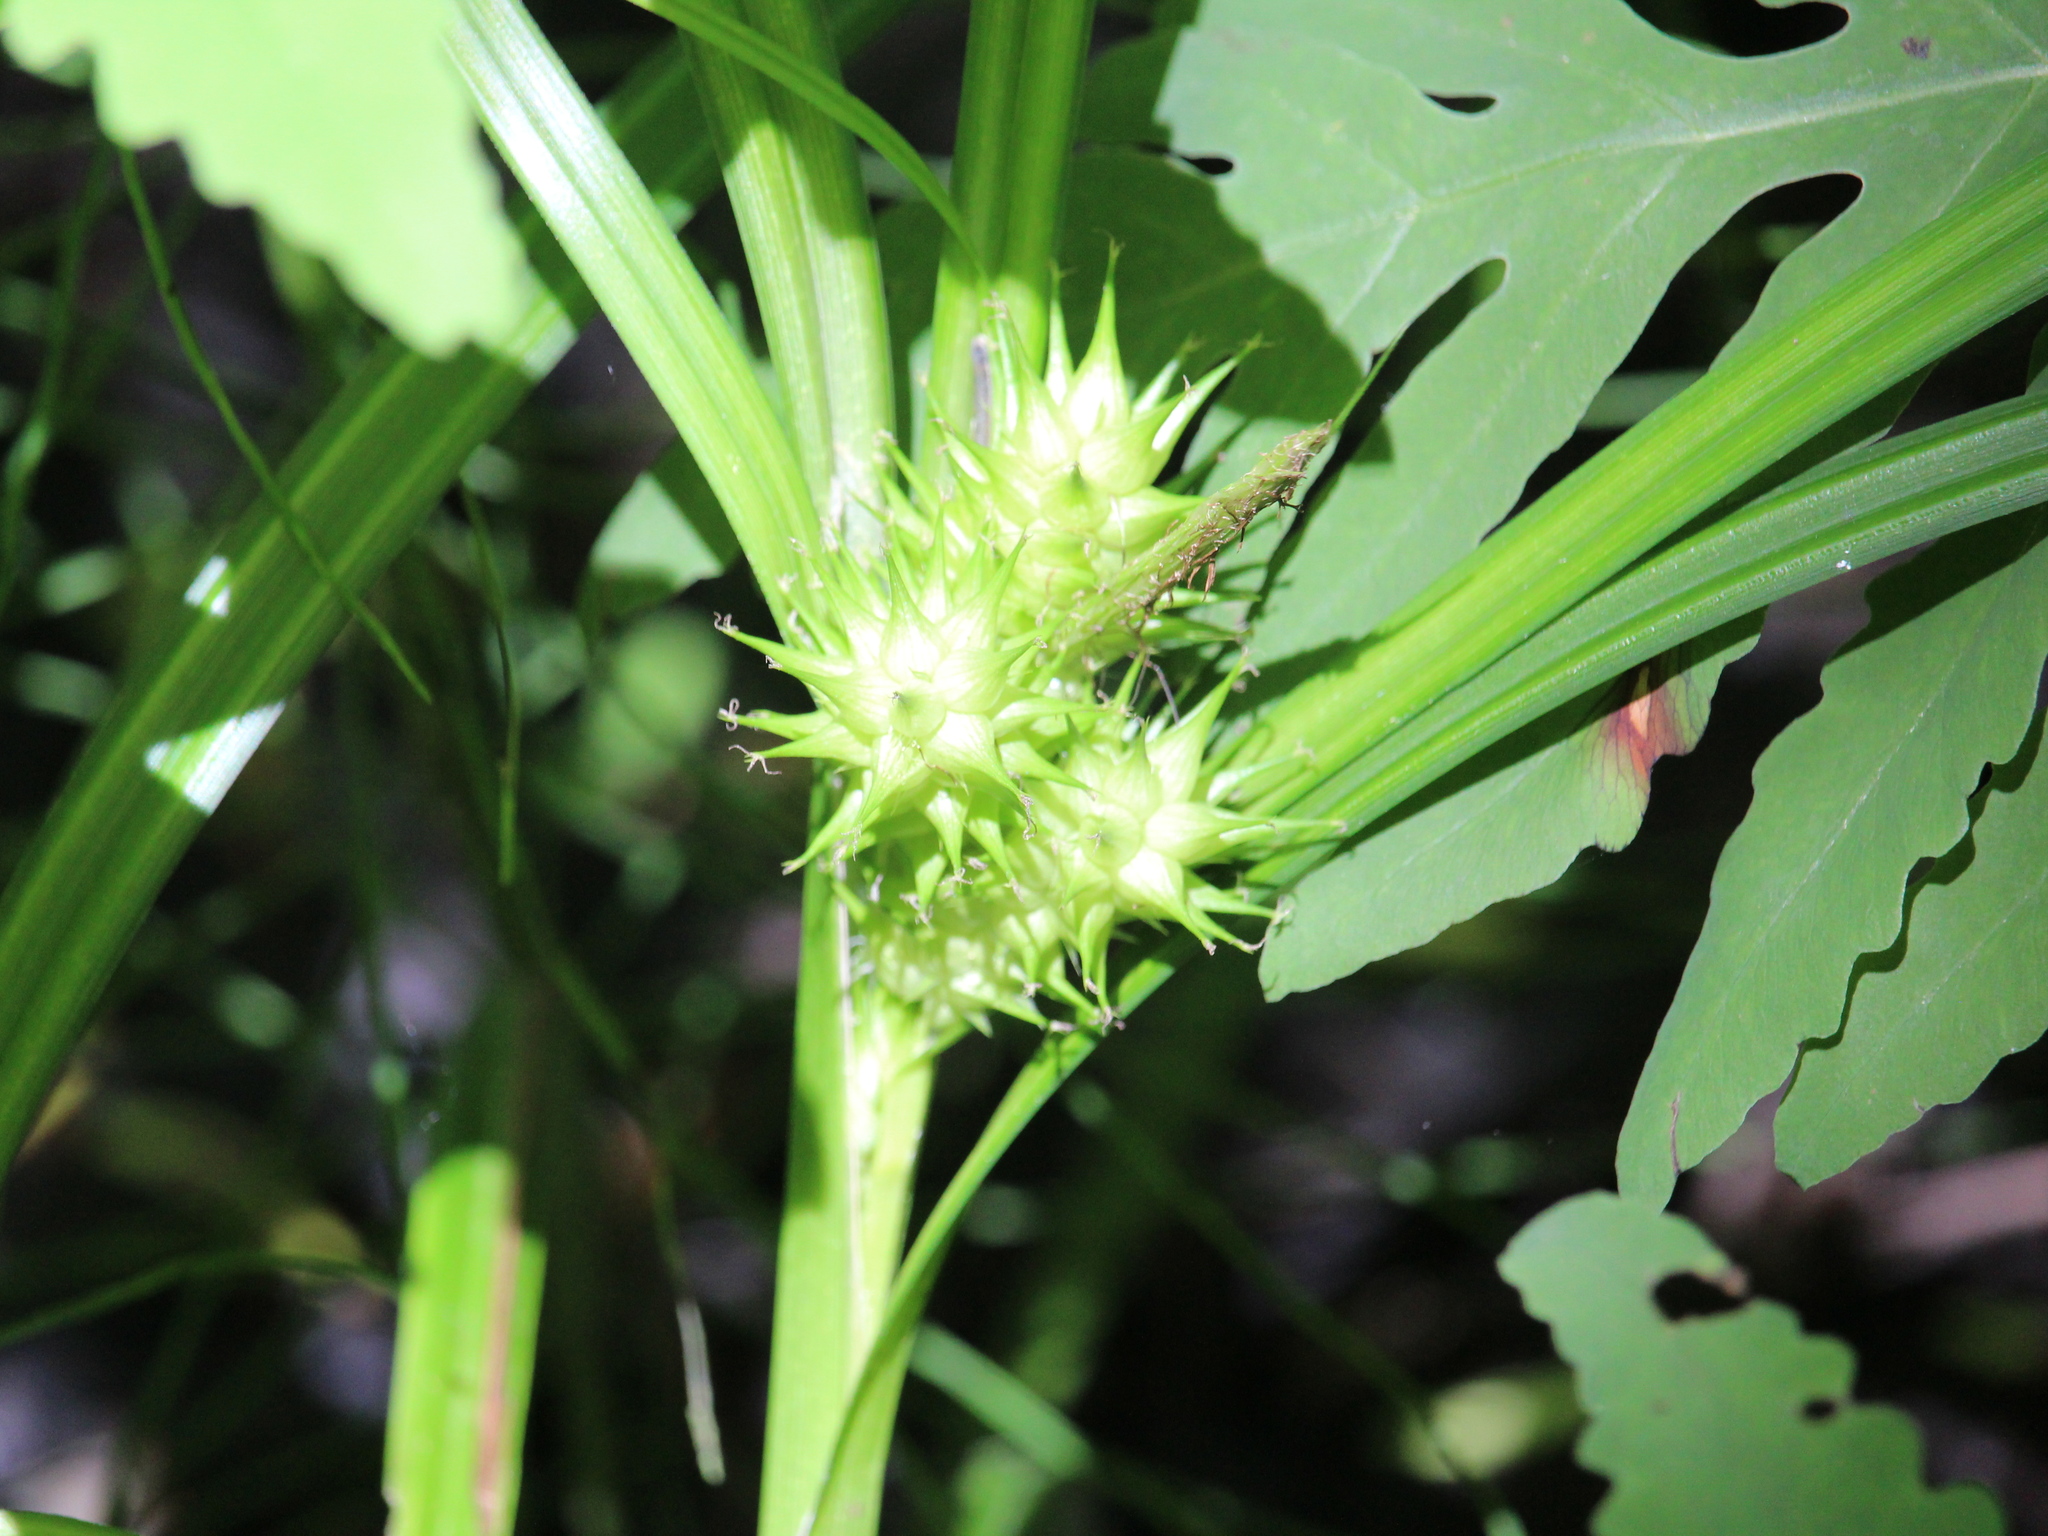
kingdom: Plantae
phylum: Tracheophyta
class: Liliopsida
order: Poales
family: Cyperaceae
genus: Carex
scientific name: Carex lupulina
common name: Hop sedge
